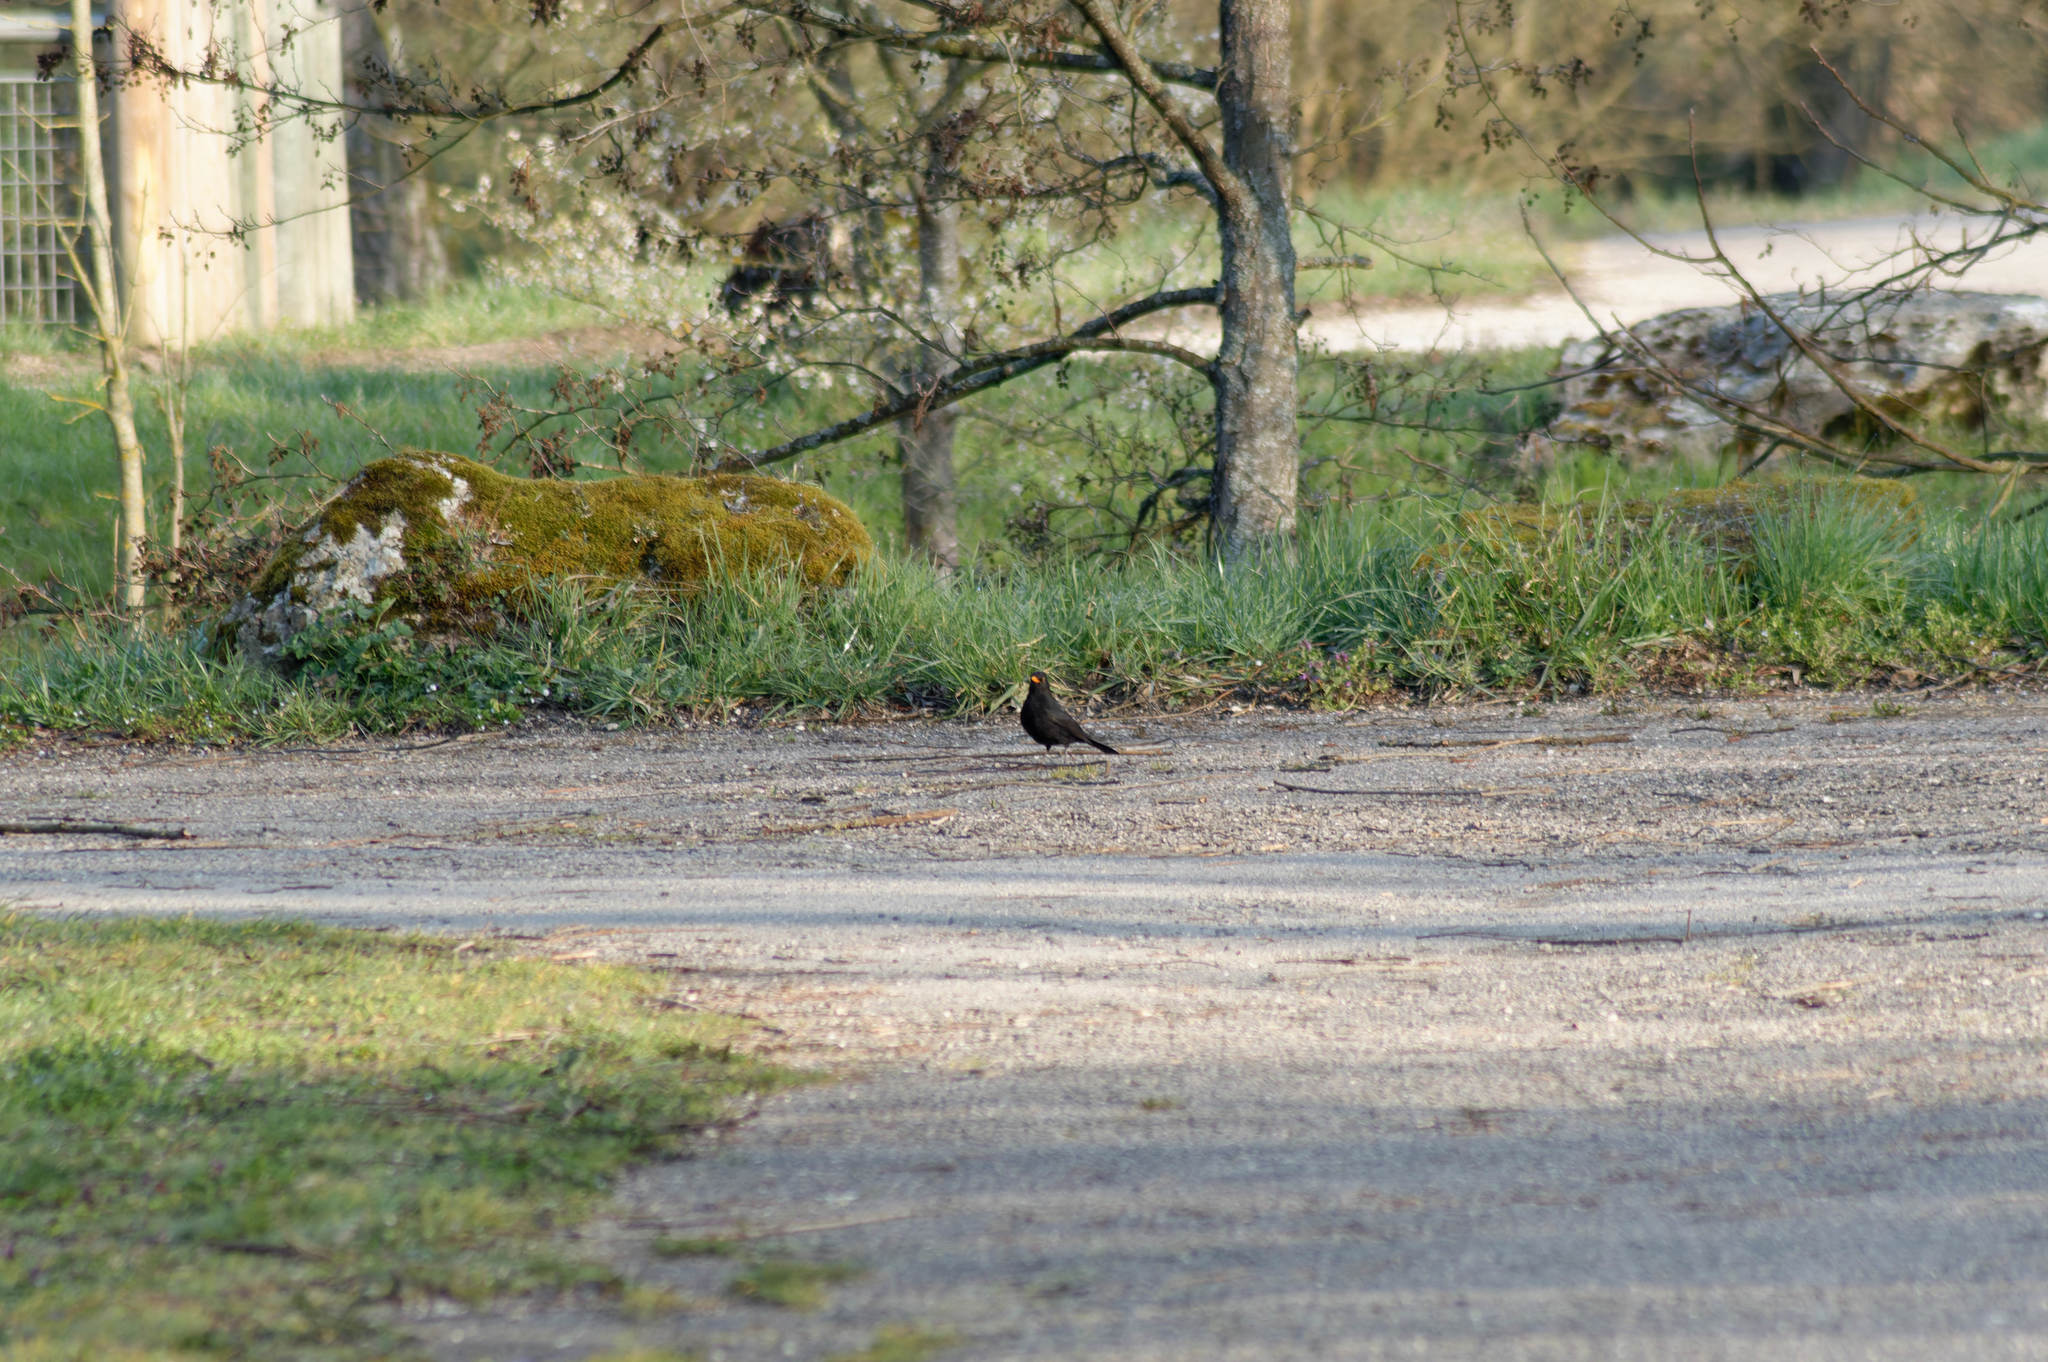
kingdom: Animalia
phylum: Chordata
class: Aves
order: Passeriformes
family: Turdidae
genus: Turdus
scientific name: Turdus merula
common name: Common blackbird
